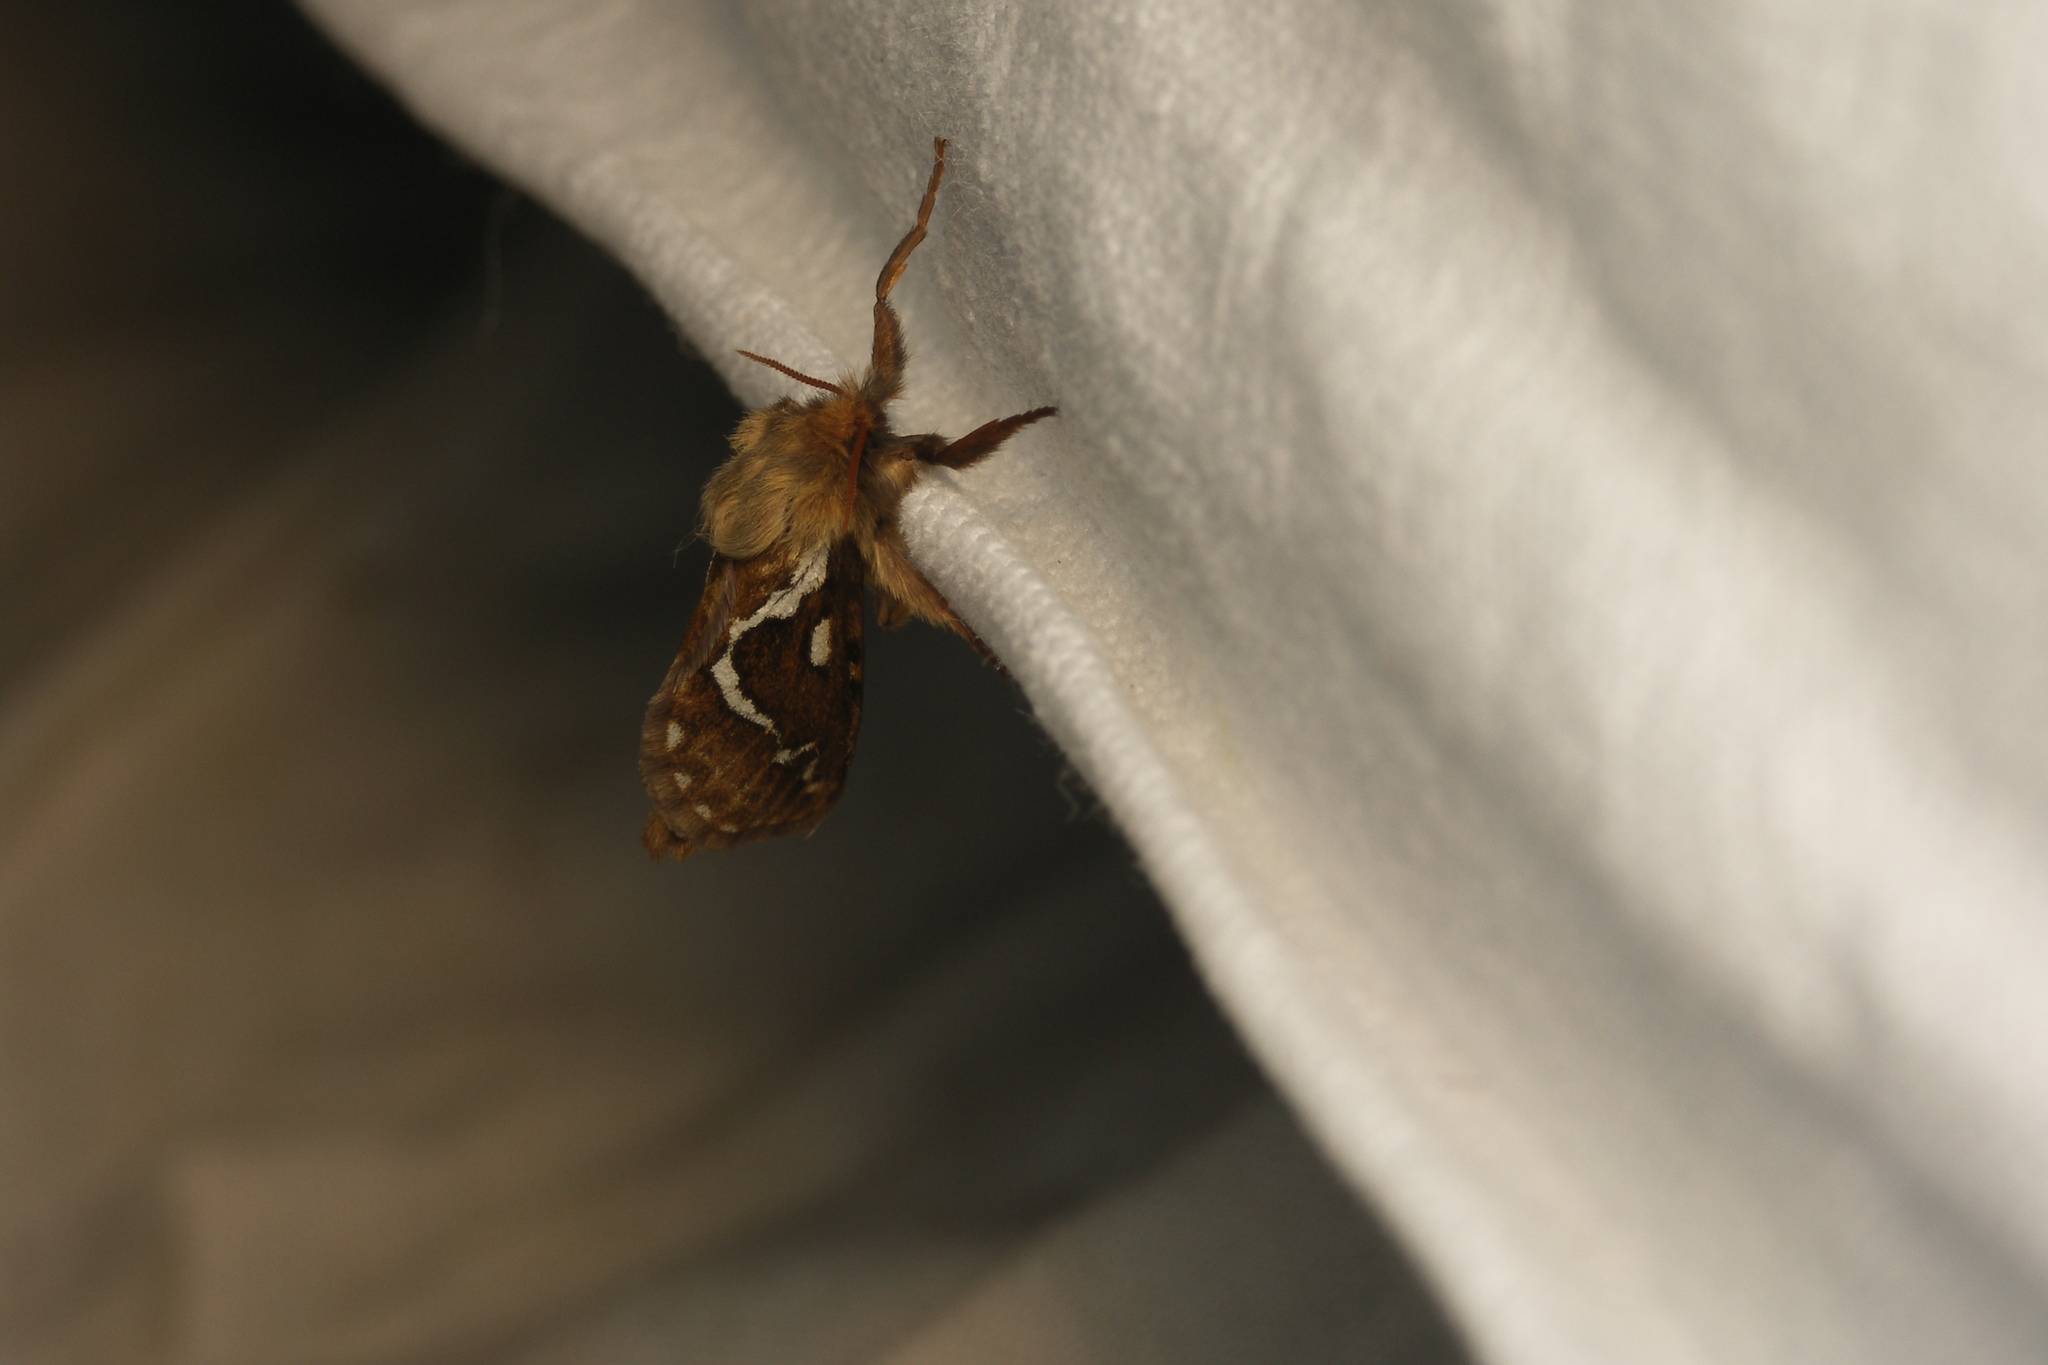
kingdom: Animalia
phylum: Arthropoda
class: Insecta
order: Lepidoptera
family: Hepialidae
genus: Korscheltellus
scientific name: Korscheltellus lupulina
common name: Common swift
